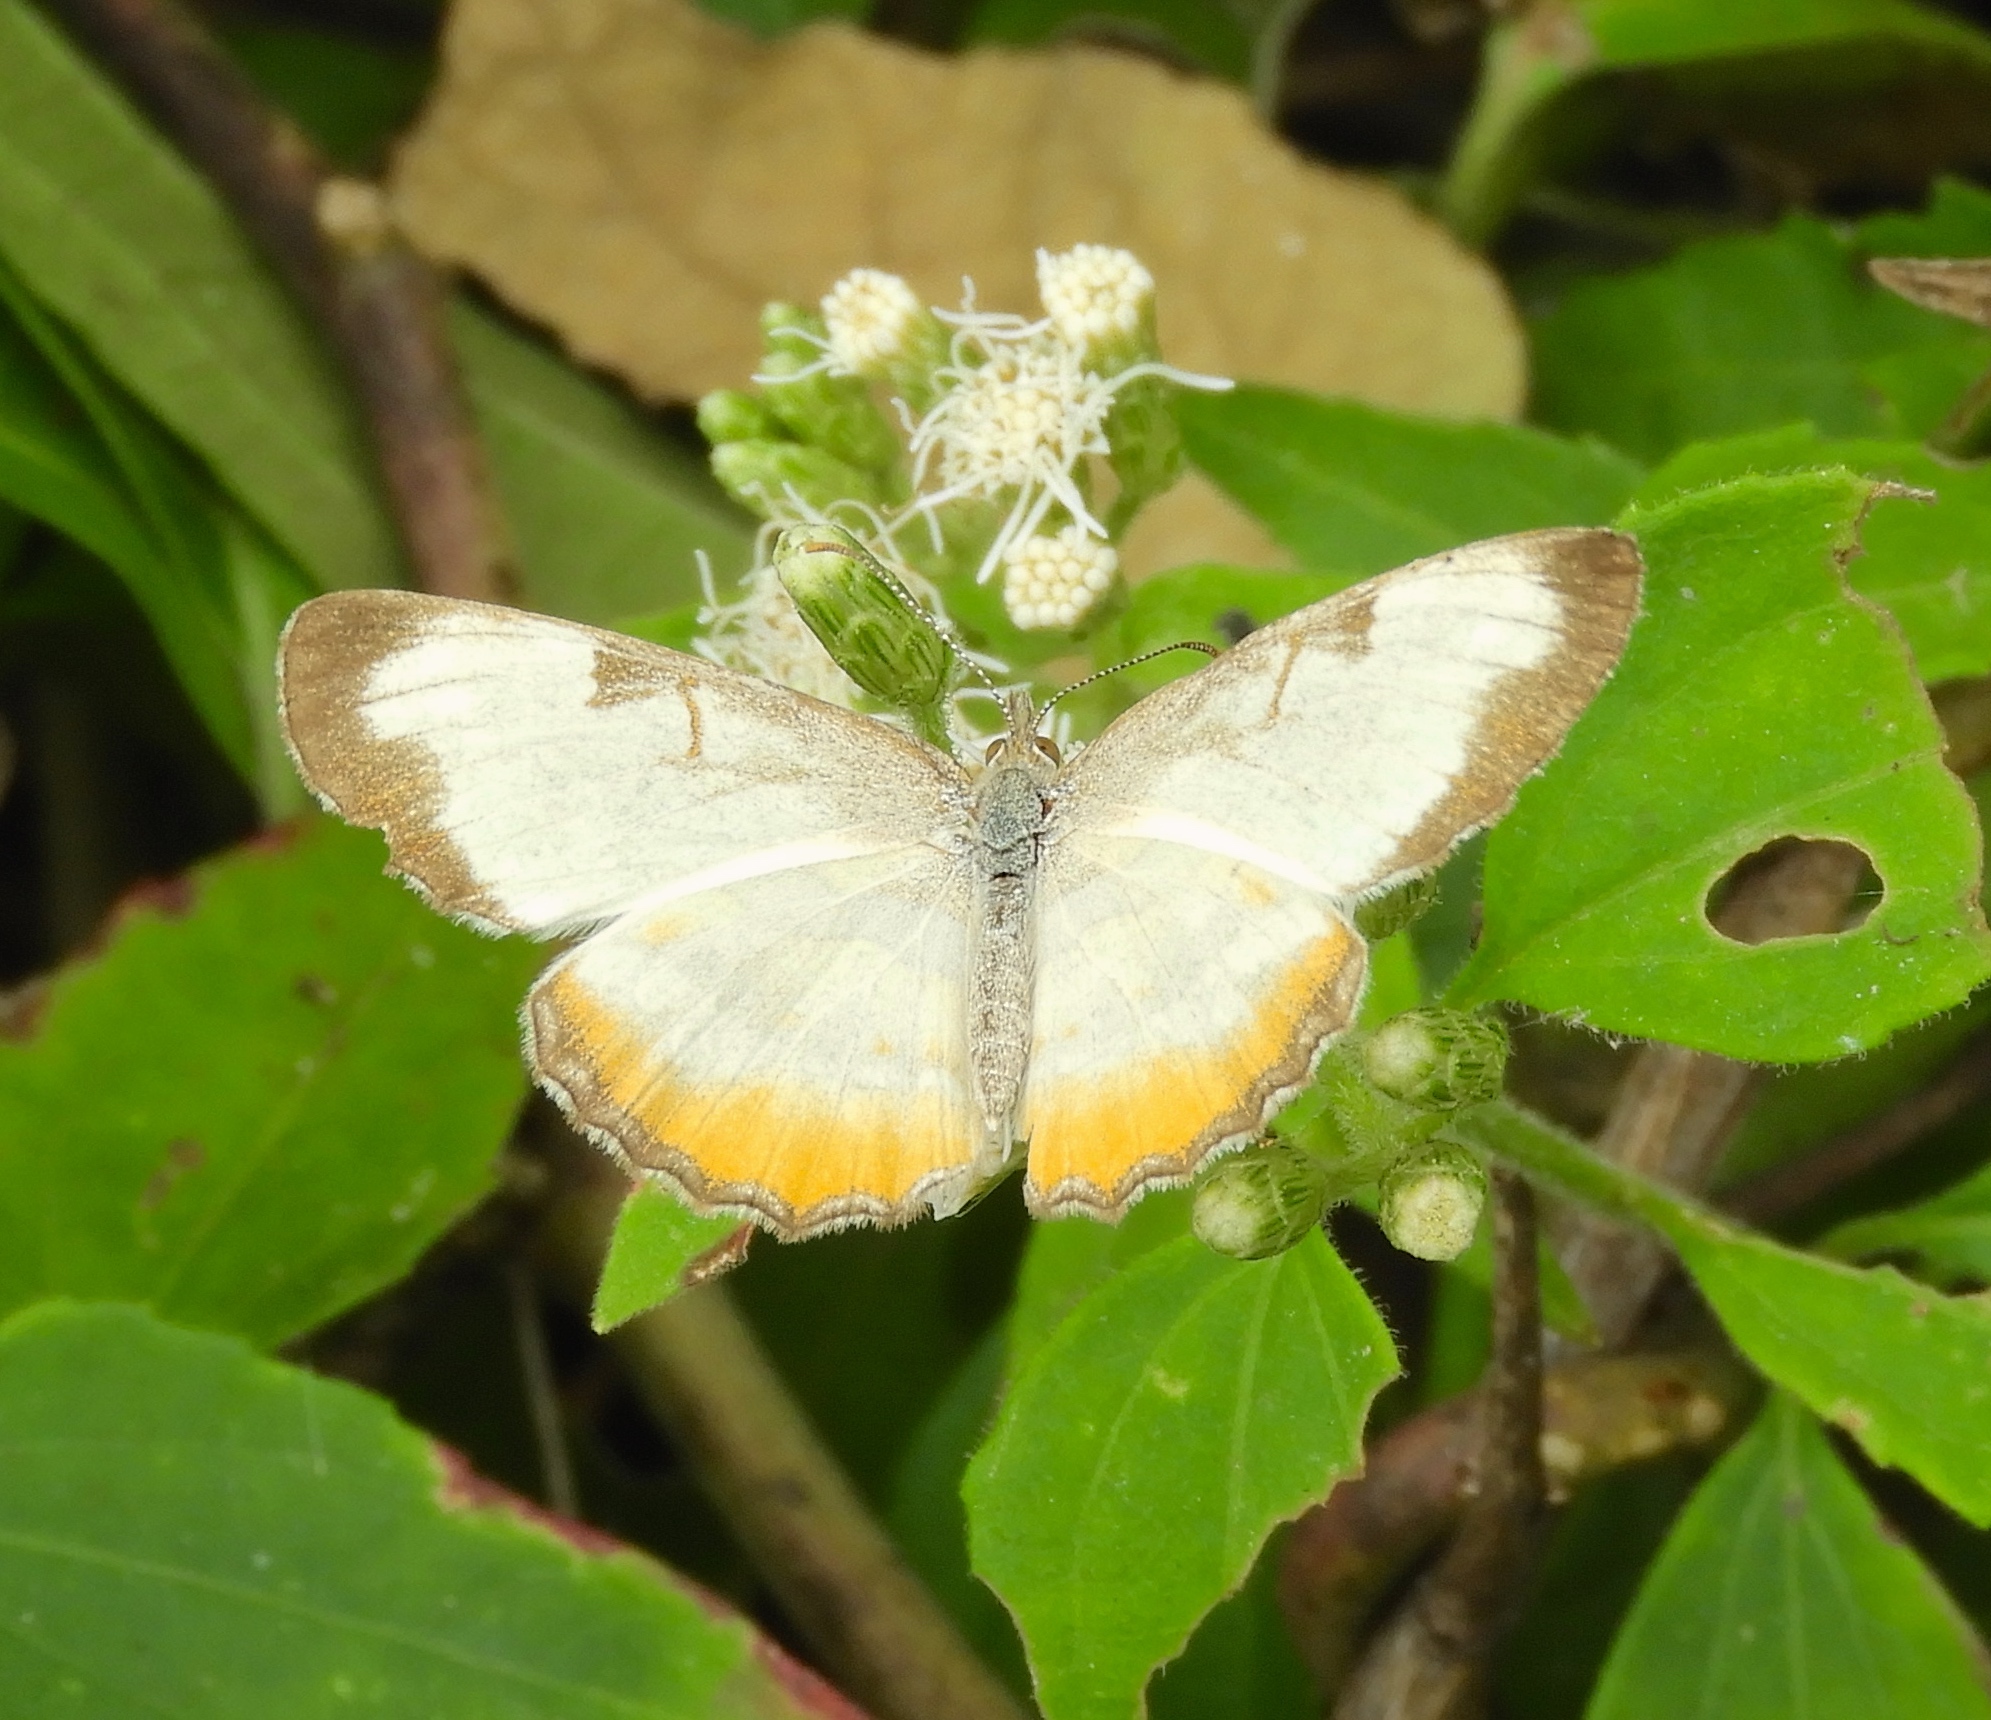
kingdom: Animalia
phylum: Arthropoda
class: Insecta
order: Lepidoptera
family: Nymphalidae
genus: Mestra
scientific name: Mestra amymone
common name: Common mestra
